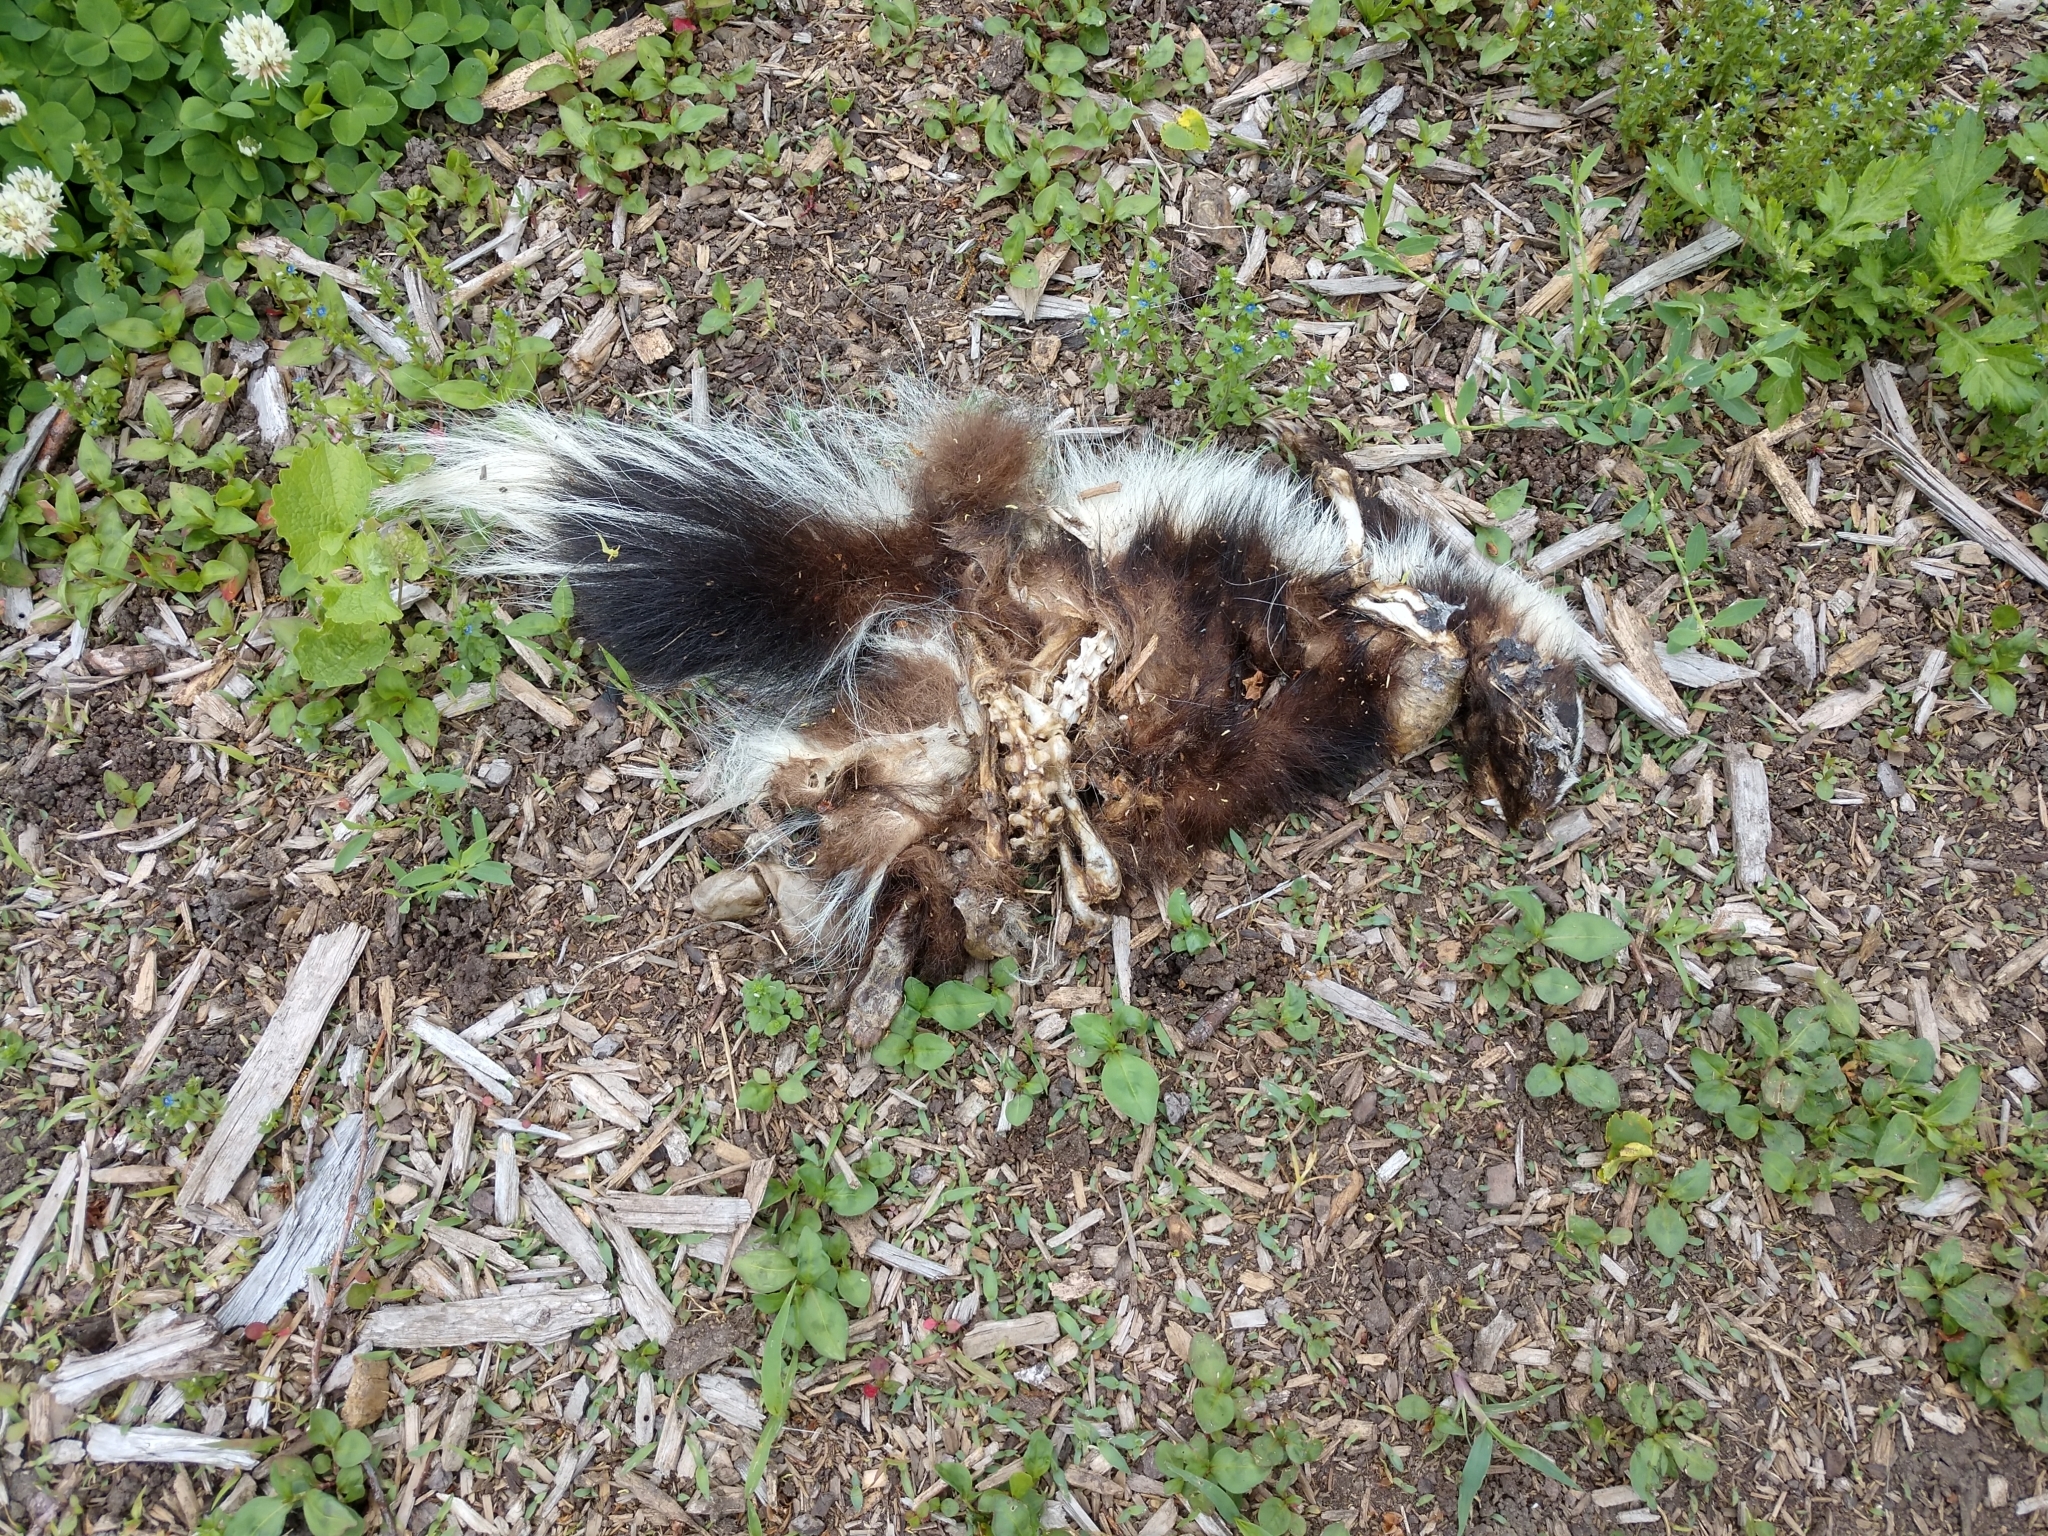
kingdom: Animalia
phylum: Chordata
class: Mammalia
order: Carnivora
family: Mephitidae
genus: Mephitis
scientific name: Mephitis mephitis
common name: Striped skunk
